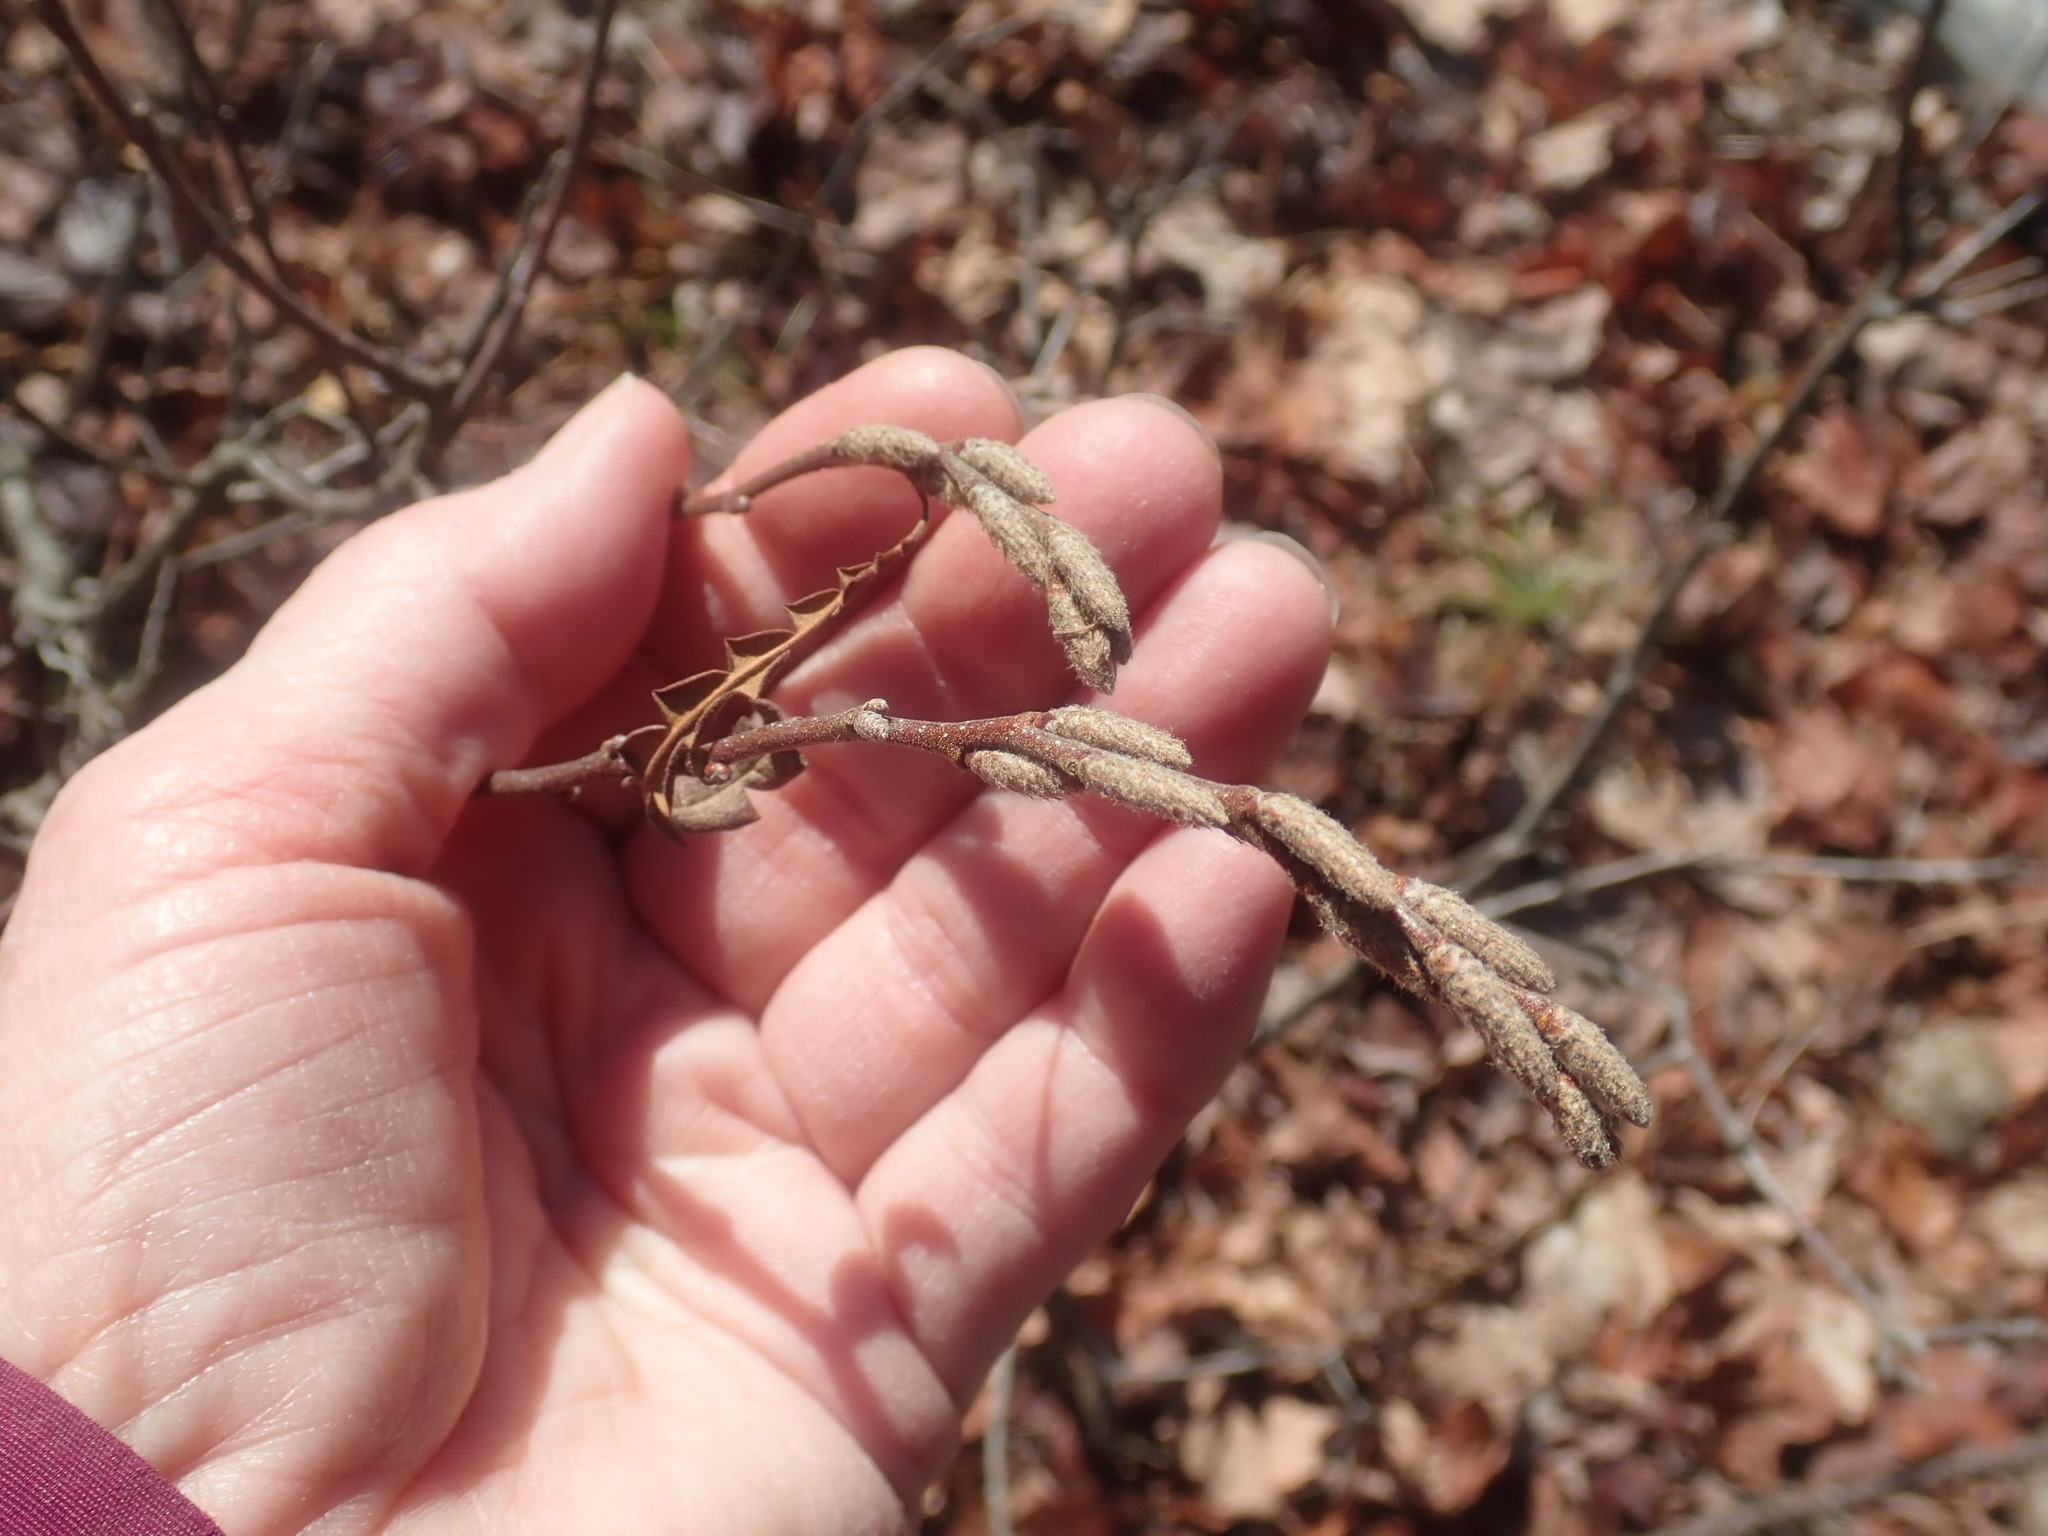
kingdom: Plantae
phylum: Tracheophyta
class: Magnoliopsida
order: Fagales
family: Myricaceae
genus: Comptonia
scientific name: Comptonia peregrina
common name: Sweet-fern
